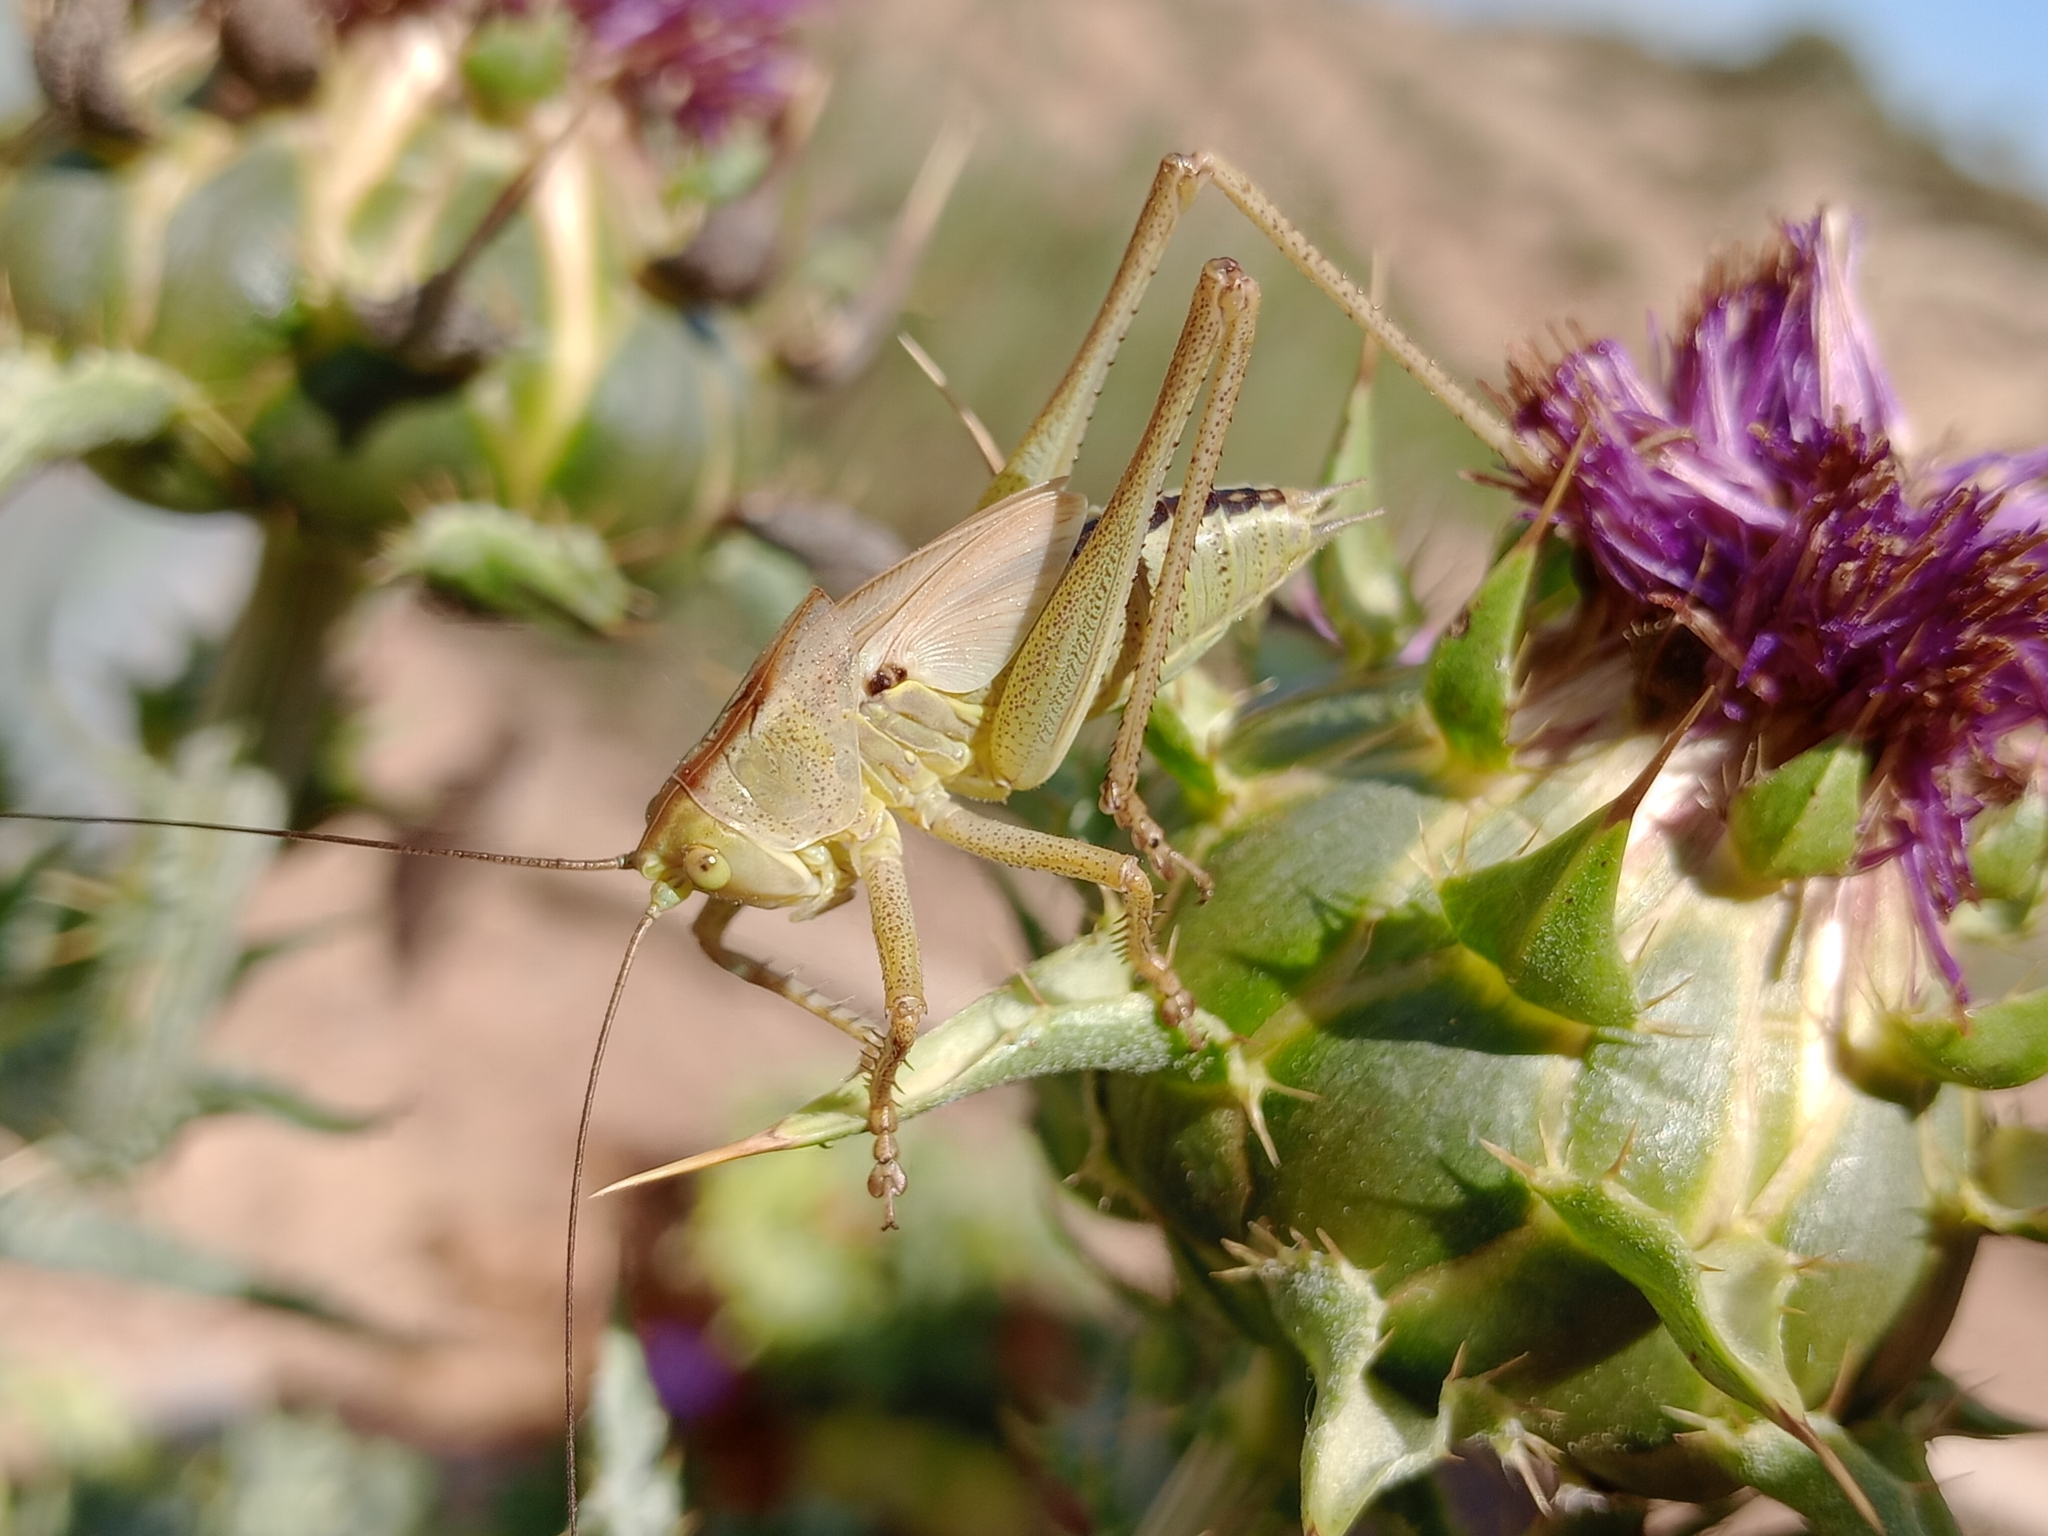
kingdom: Animalia
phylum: Arthropoda
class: Insecta
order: Orthoptera
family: Tettigoniidae
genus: Tettigonia
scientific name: Tettigonia viridissima
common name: Great green bush-cricket
